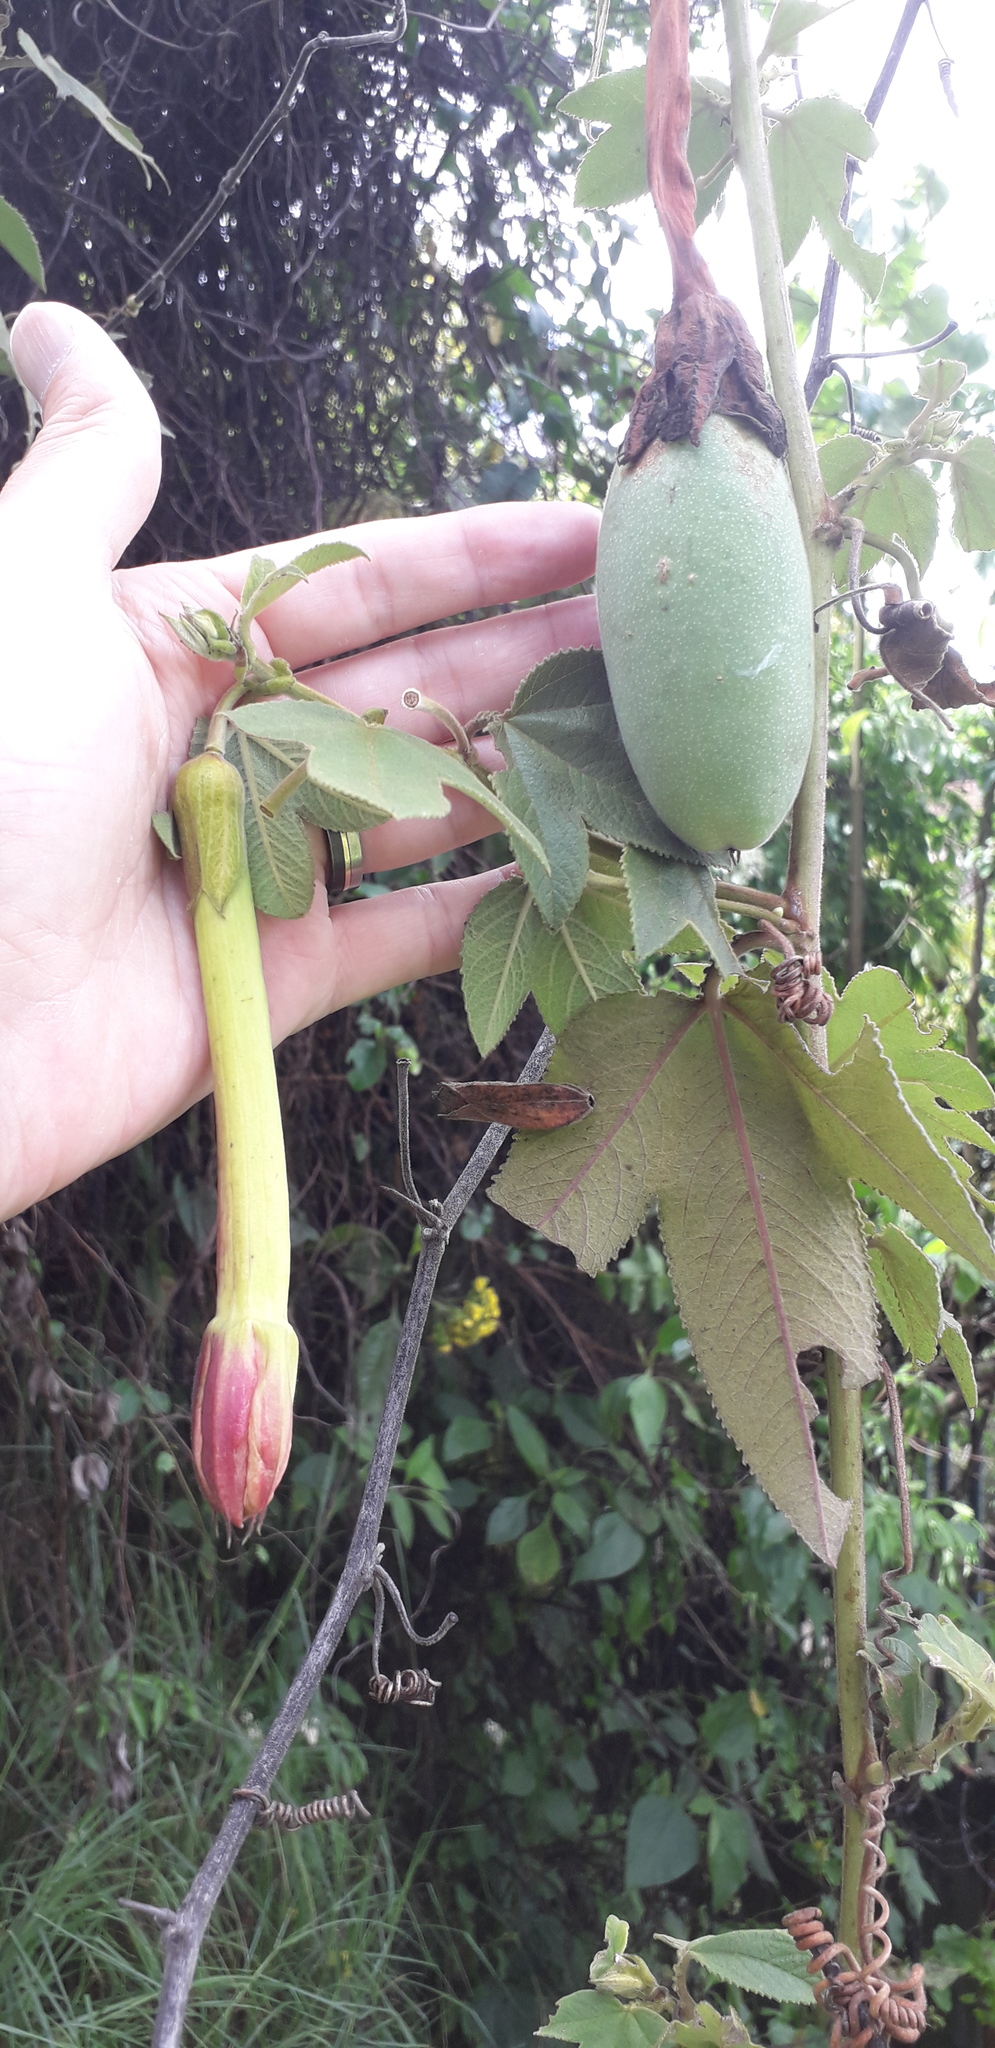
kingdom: Plantae
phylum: Tracheophyta
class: Magnoliopsida
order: Malpighiales
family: Passifloraceae
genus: Passiflora
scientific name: Passiflora tripartita
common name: Banana poka
